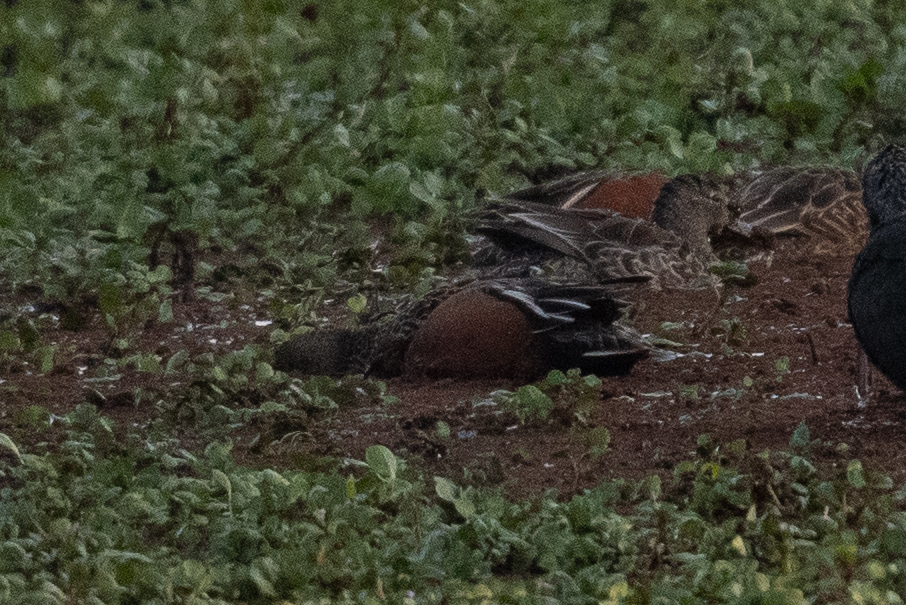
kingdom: Animalia
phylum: Chordata
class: Aves
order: Anseriformes
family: Anatidae
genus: Spatula
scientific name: Spatula cyanoptera
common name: Cinnamon teal
